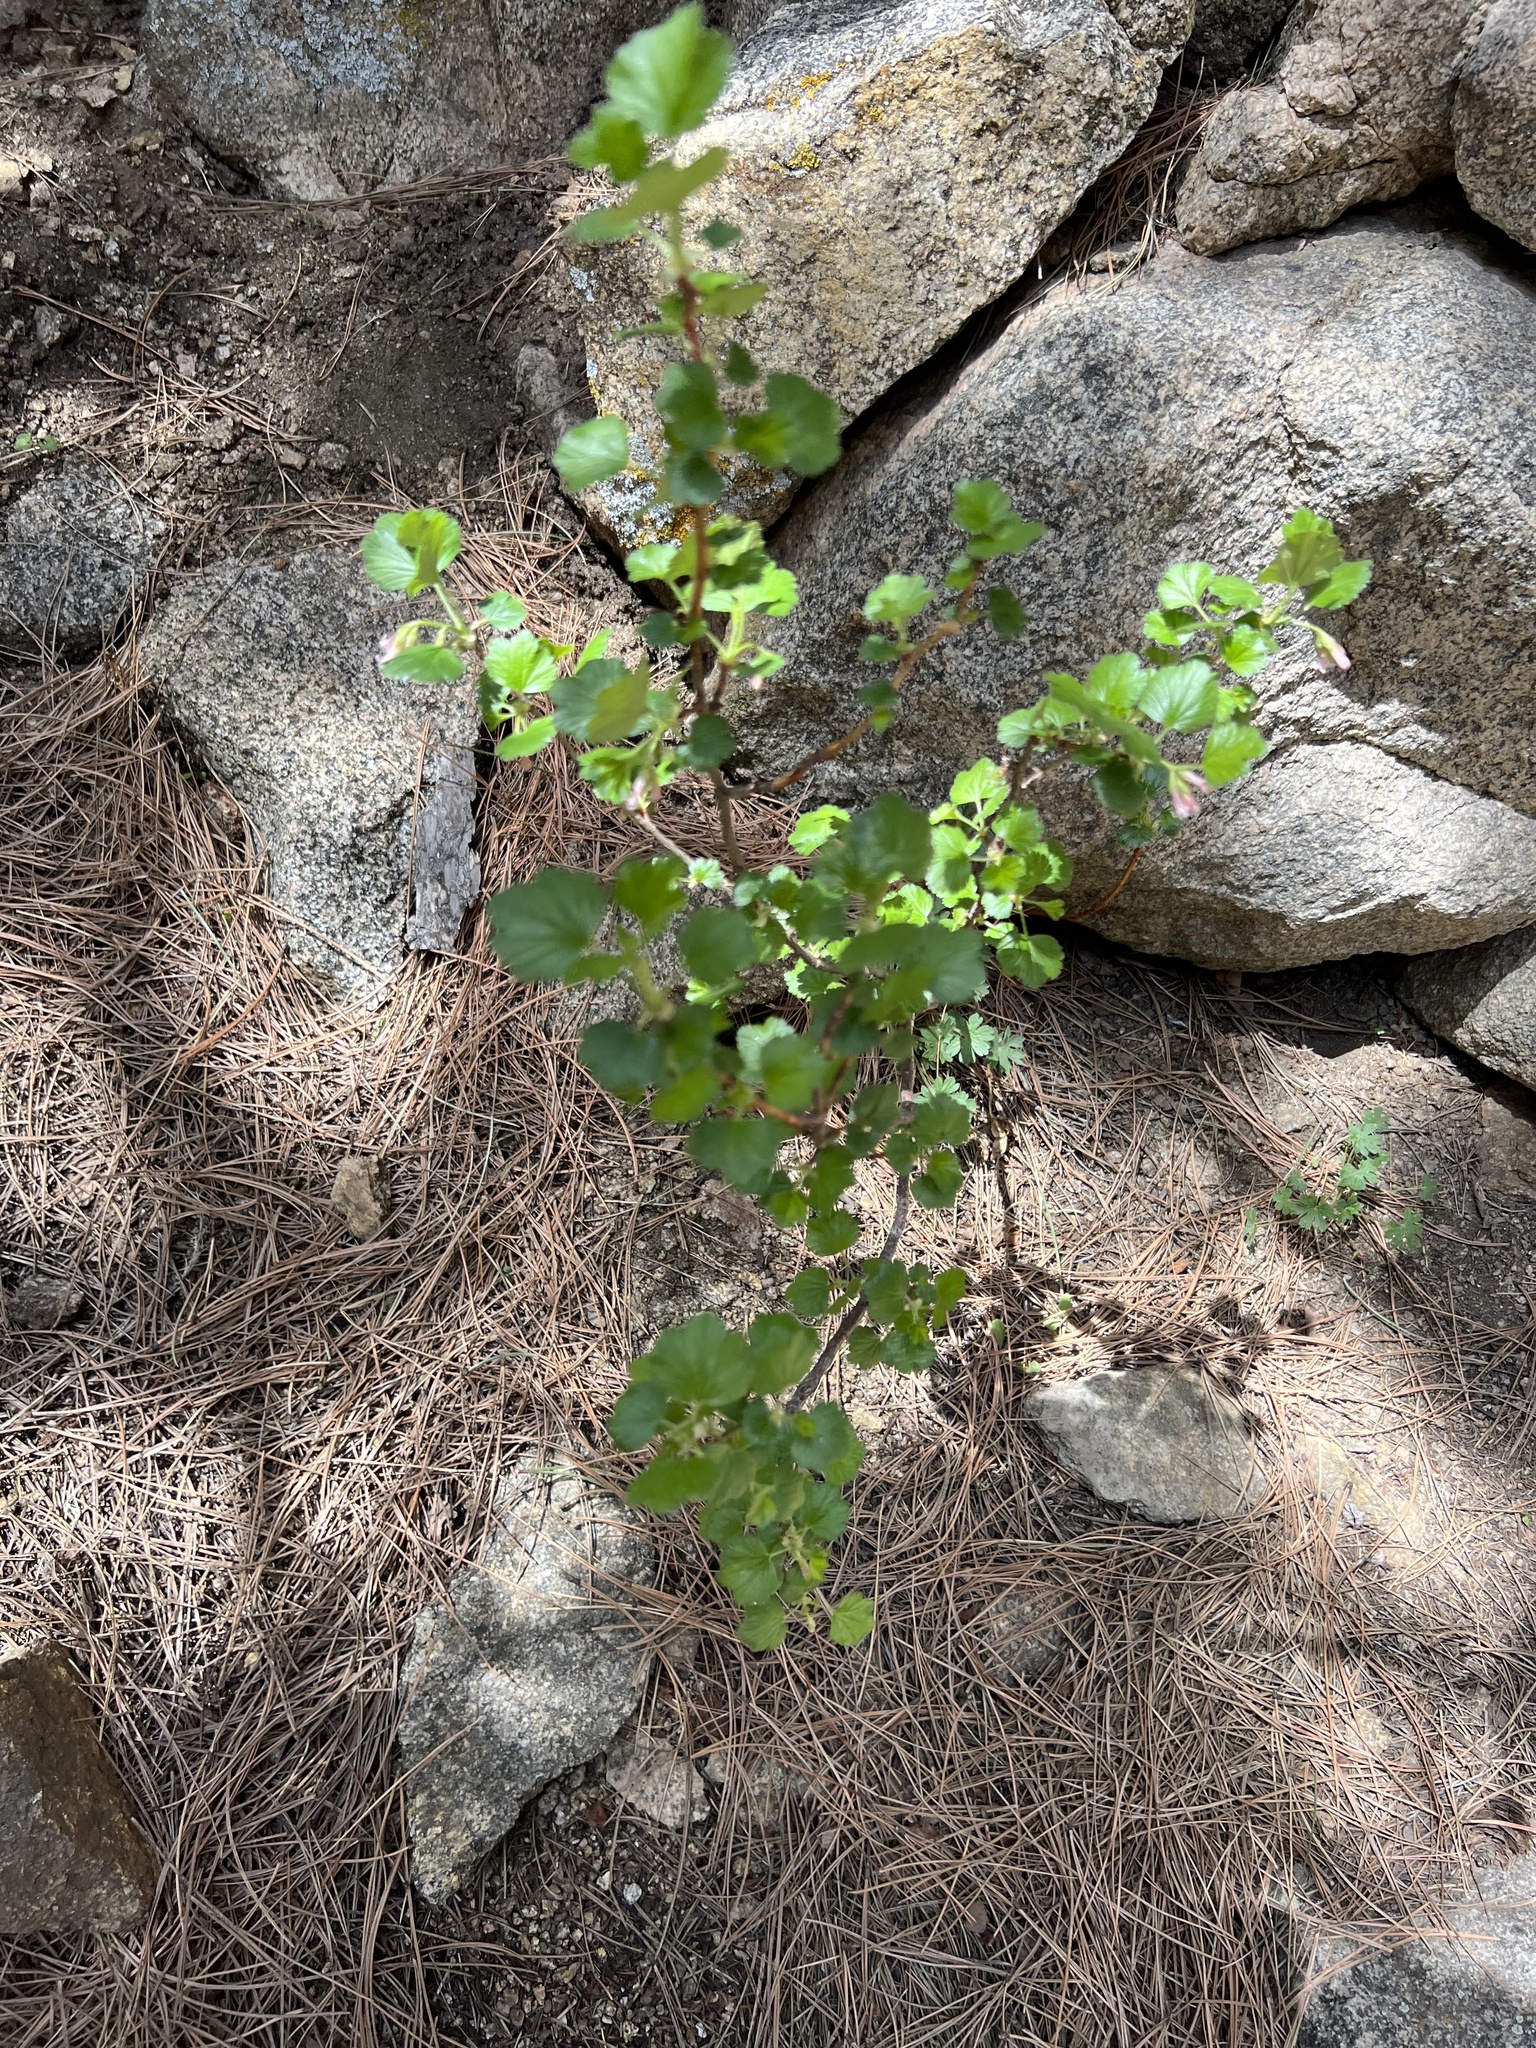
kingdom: Plantae
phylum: Tracheophyta
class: Magnoliopsida
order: Saxifragales
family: Grossulariaceae
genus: Ribes
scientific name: Ribes cereum
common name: Wax currant
